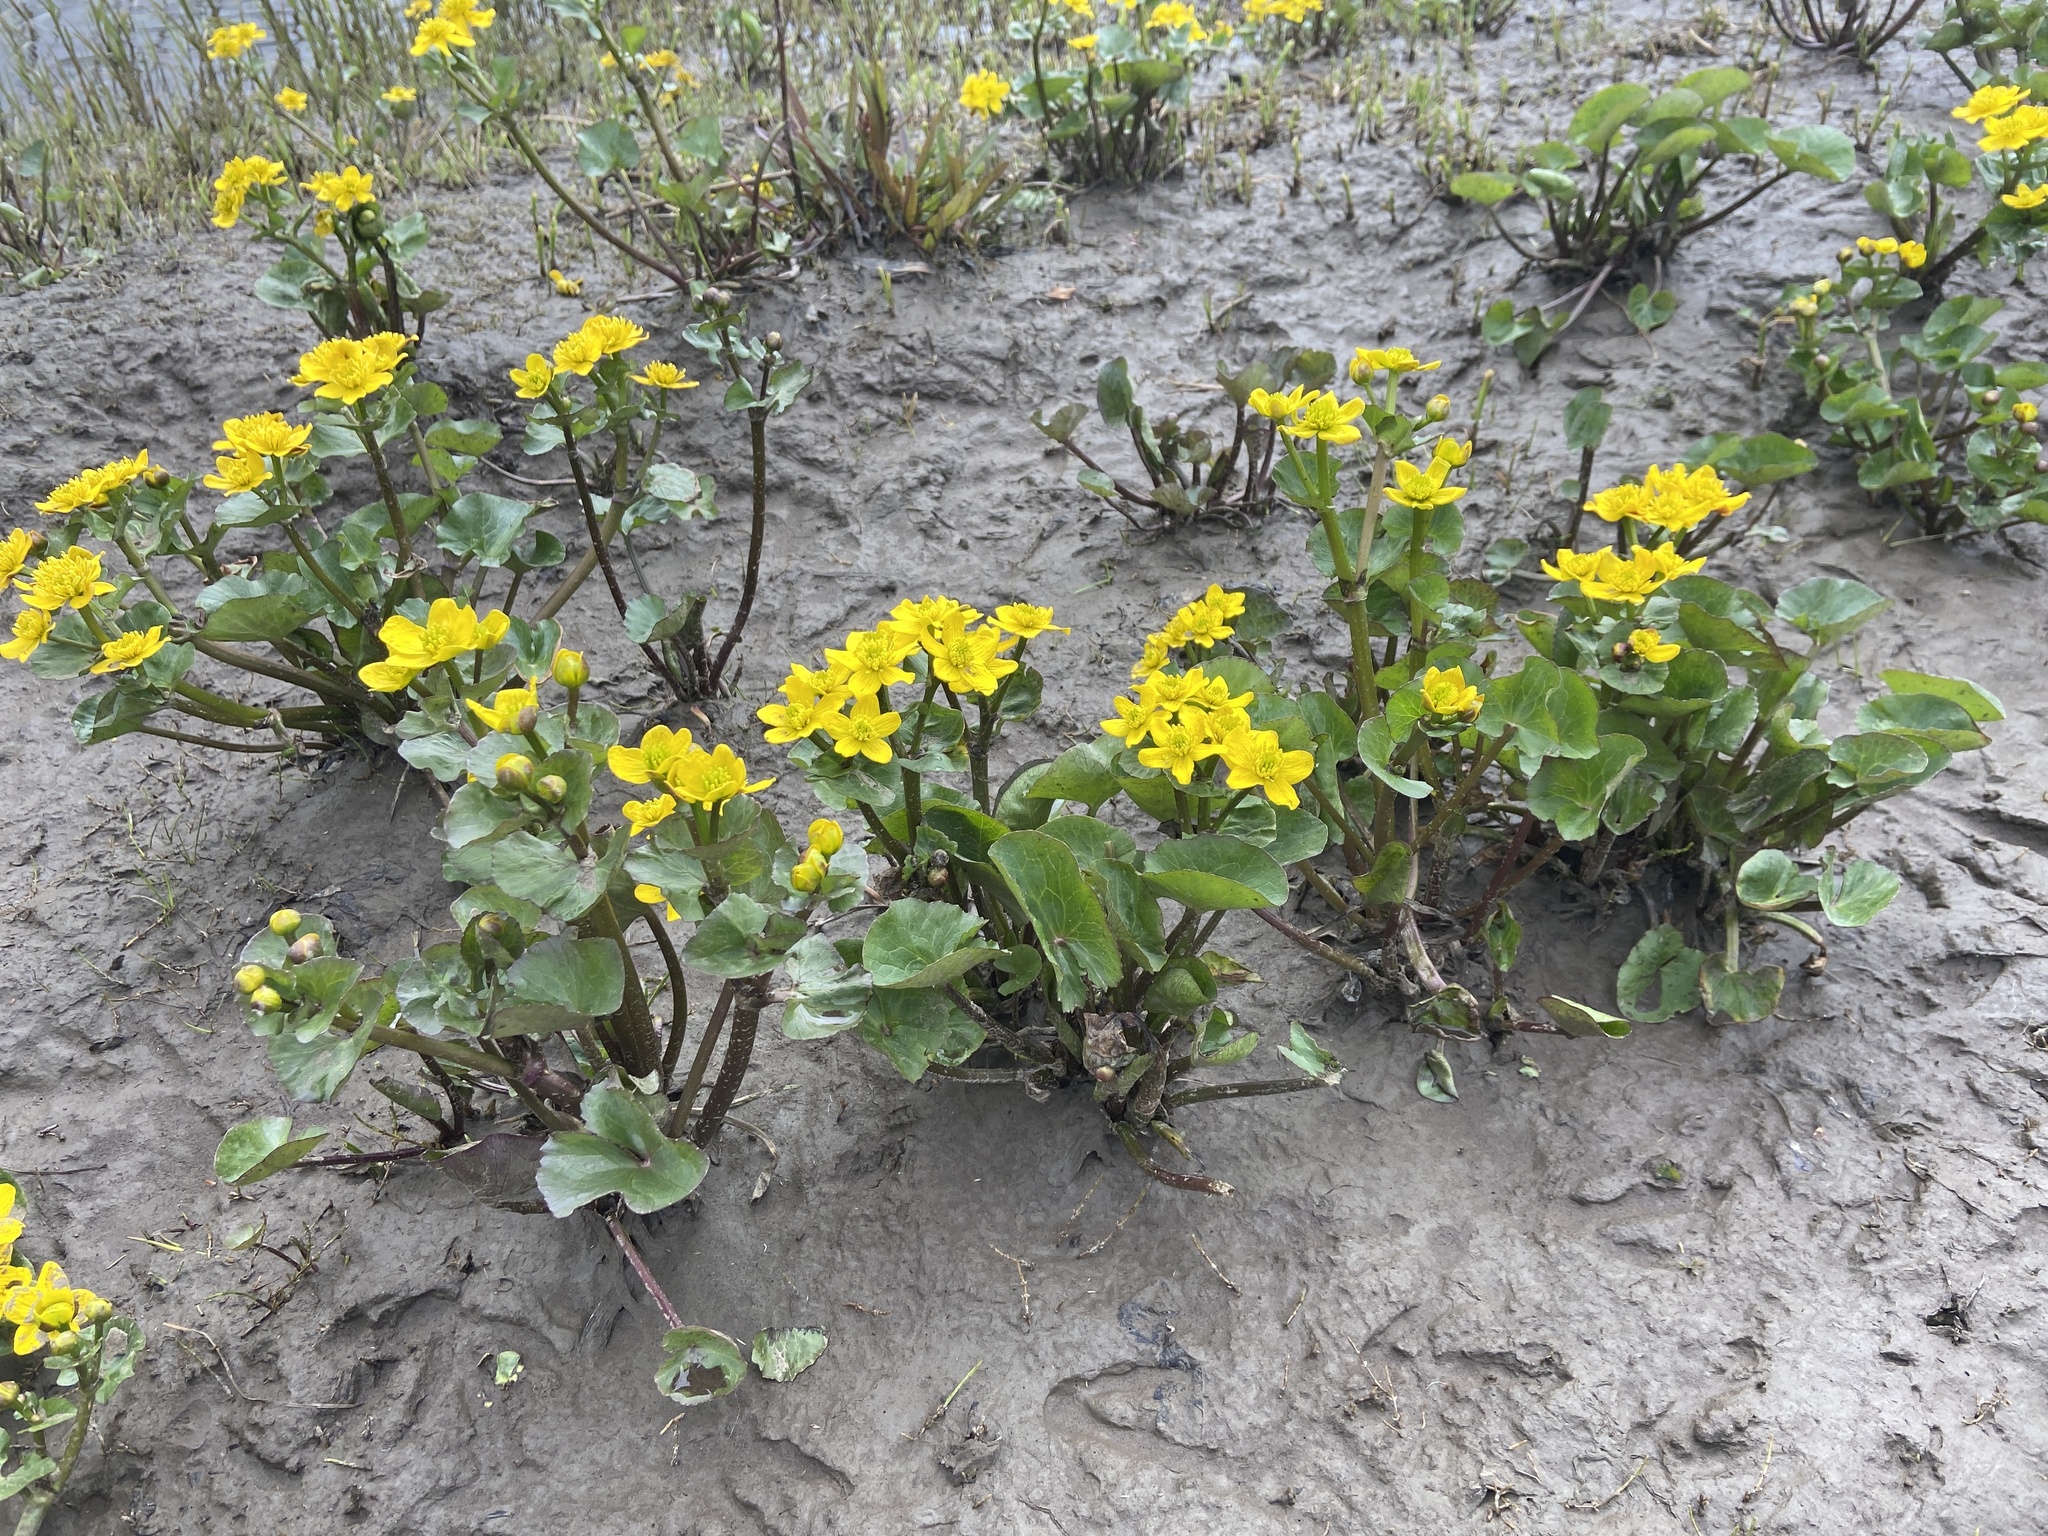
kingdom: Plantae
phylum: Tracheophyta
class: Magnoliopsida
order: Ranunculales
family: Ranunculaceae
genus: Caltha
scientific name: Caltha palustris
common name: Marsh marigold
